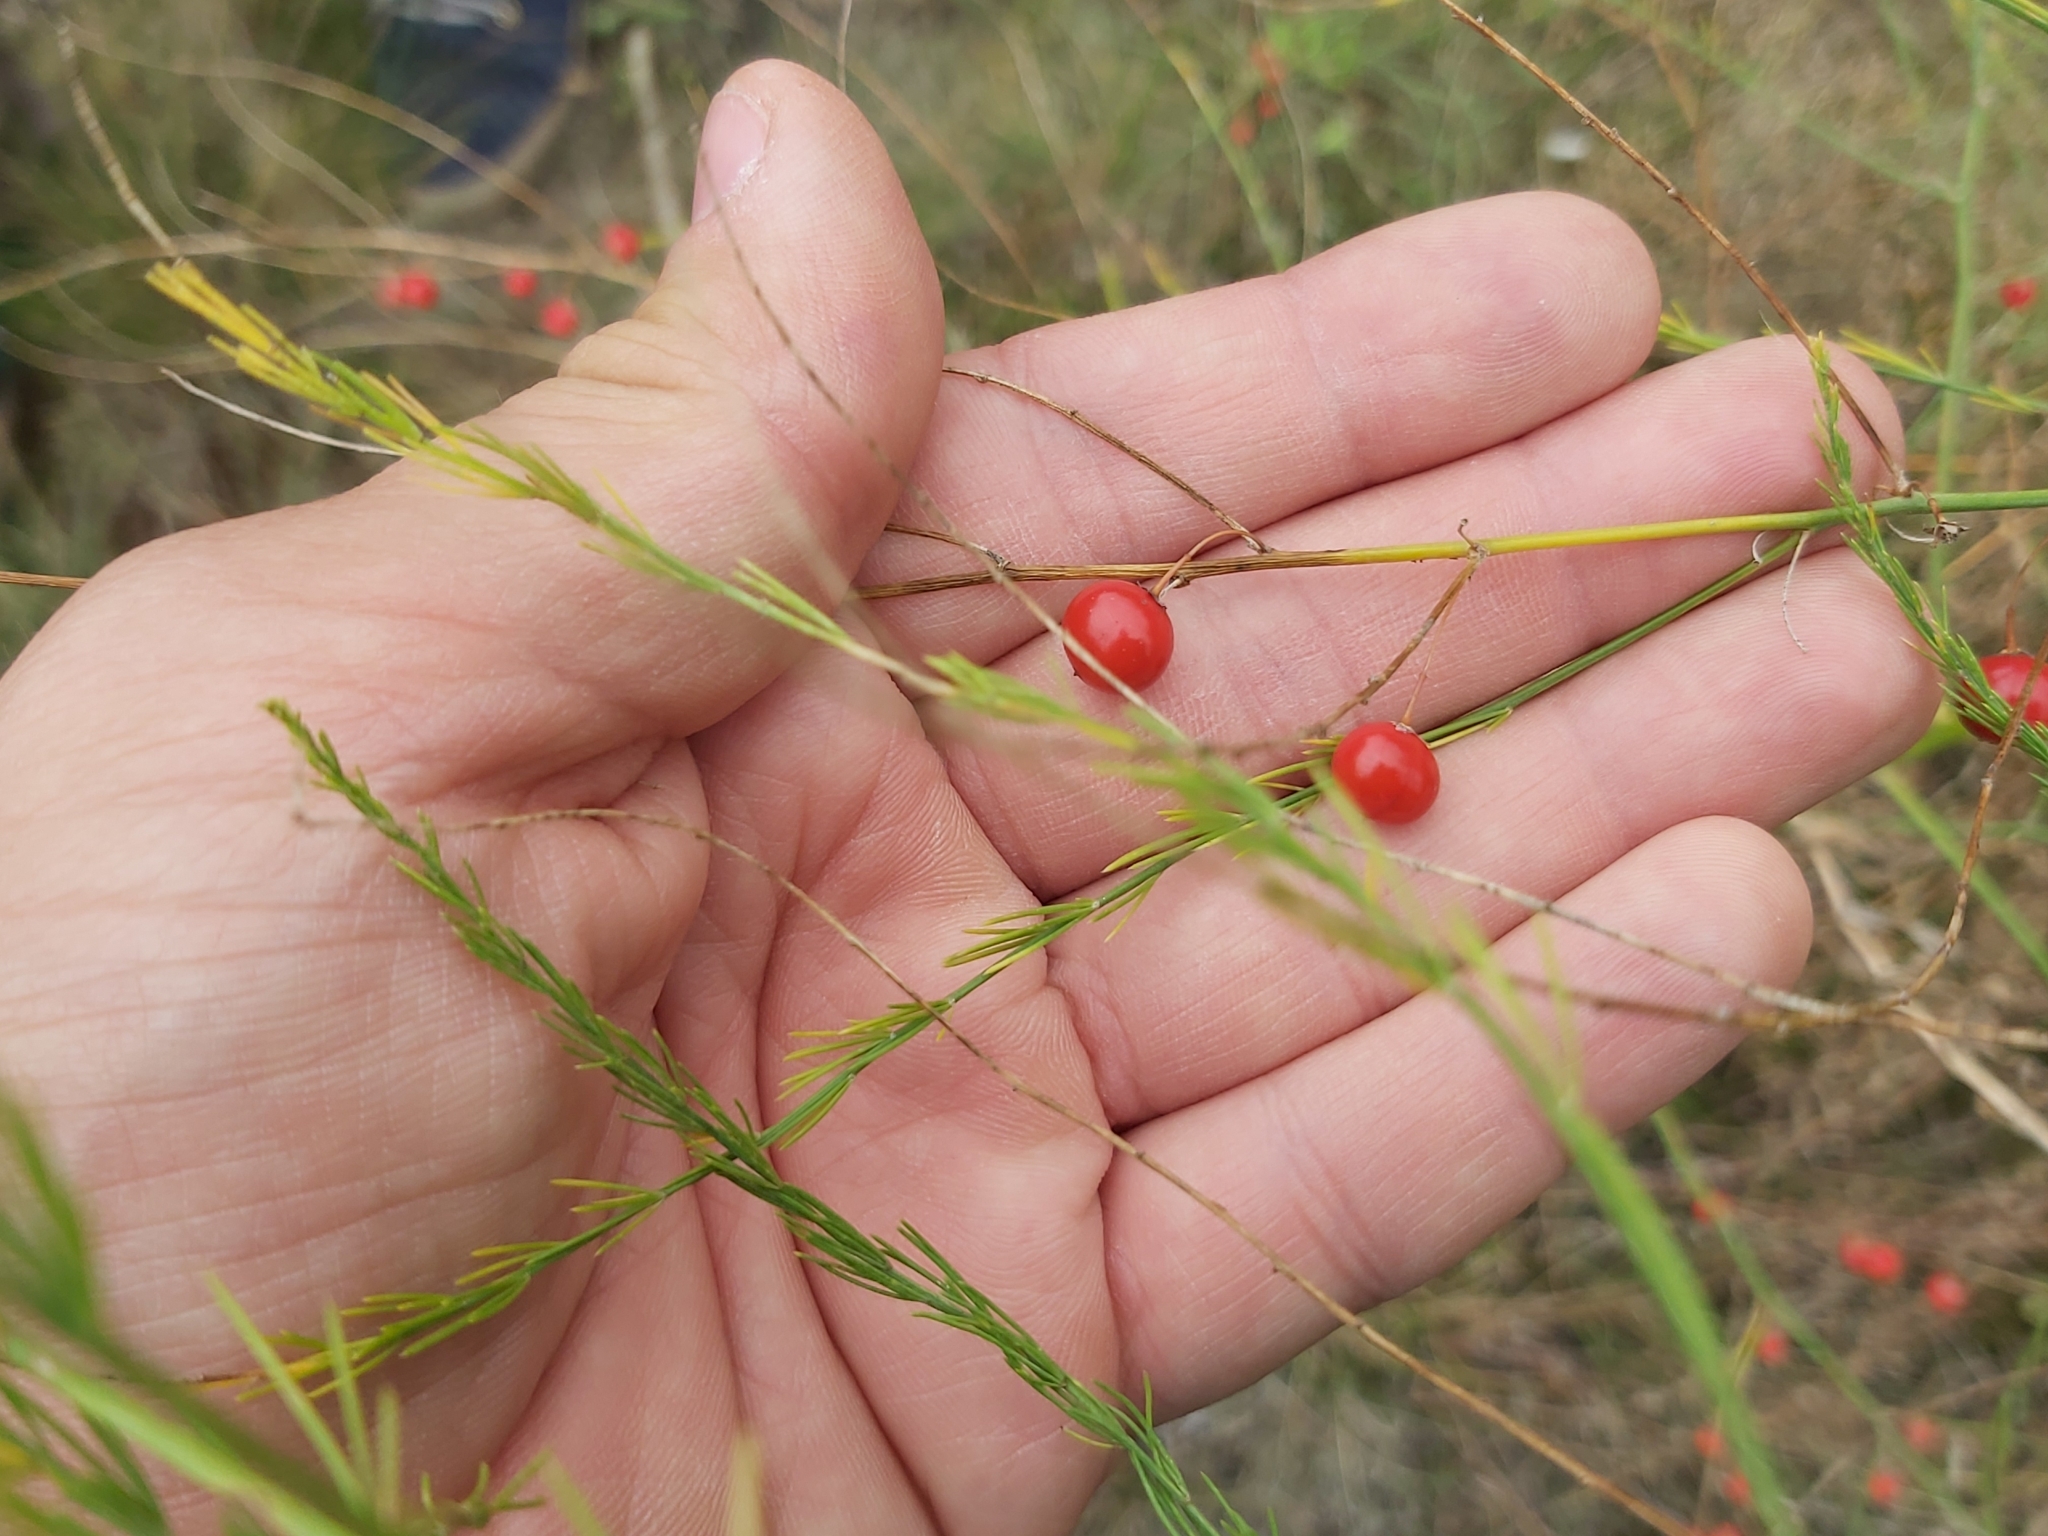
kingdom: Plantae
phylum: Tracheophyta
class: Liliopsida
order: Asparagales
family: Asparagaceae
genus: Asparagus
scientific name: Asparagus officinalis
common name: Garden asparagus
